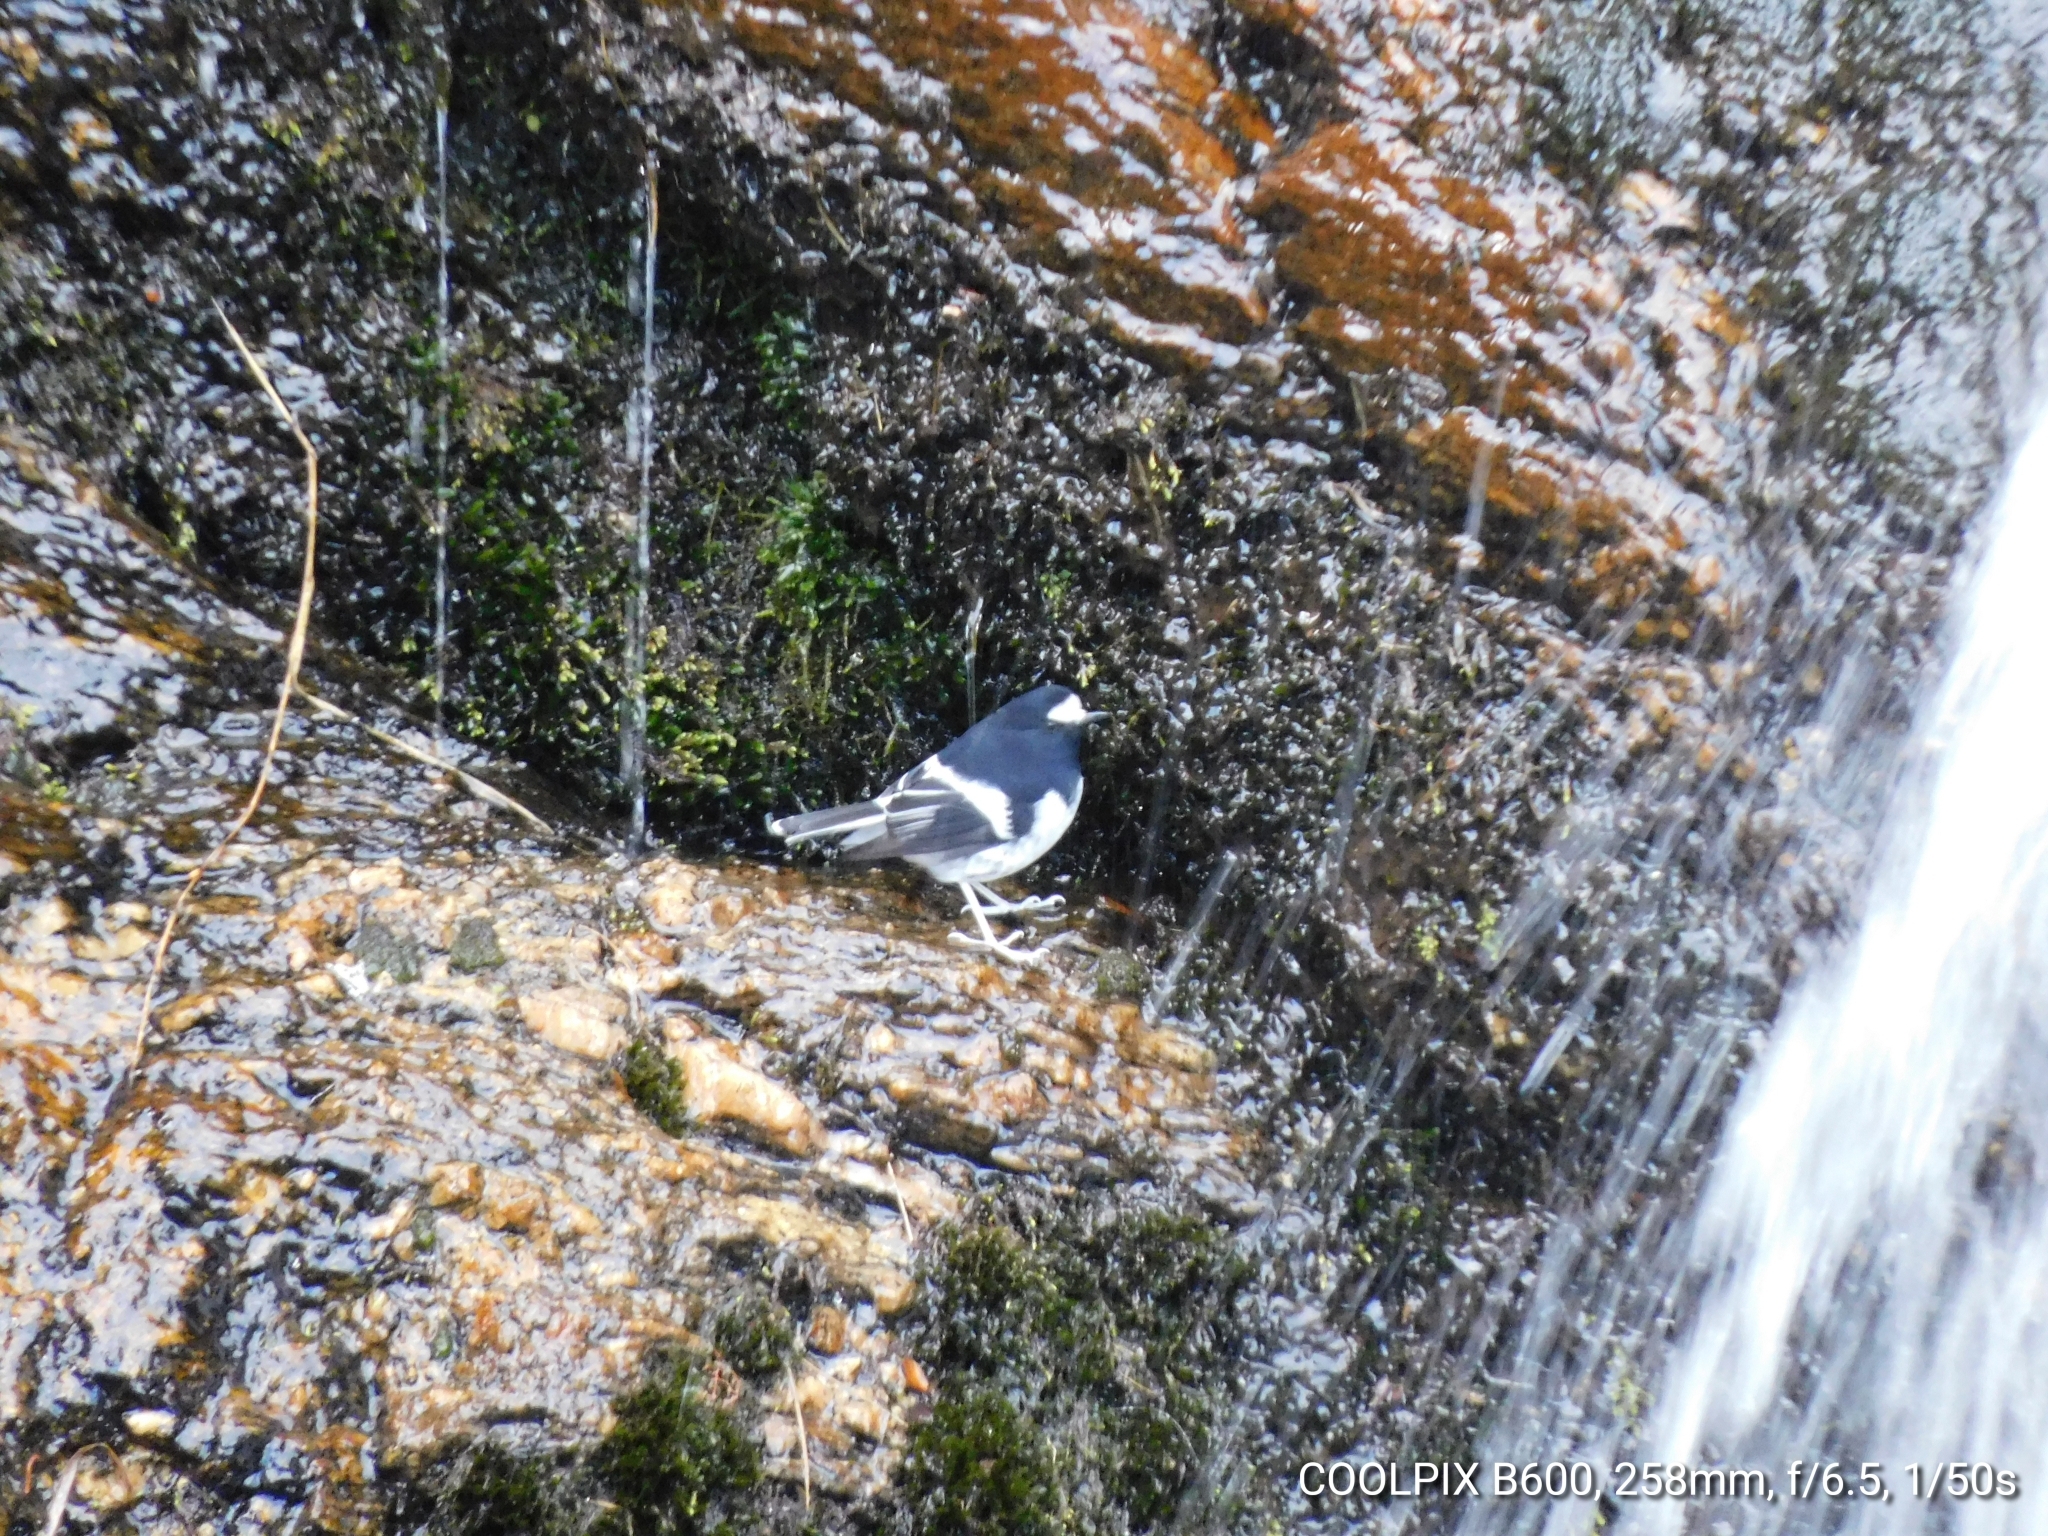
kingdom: Animalia
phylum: Chordata
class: Aves
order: Passeriformes
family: Muscicapidae
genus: Enicurus
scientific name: Enicurus scouleri
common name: Little forktail
